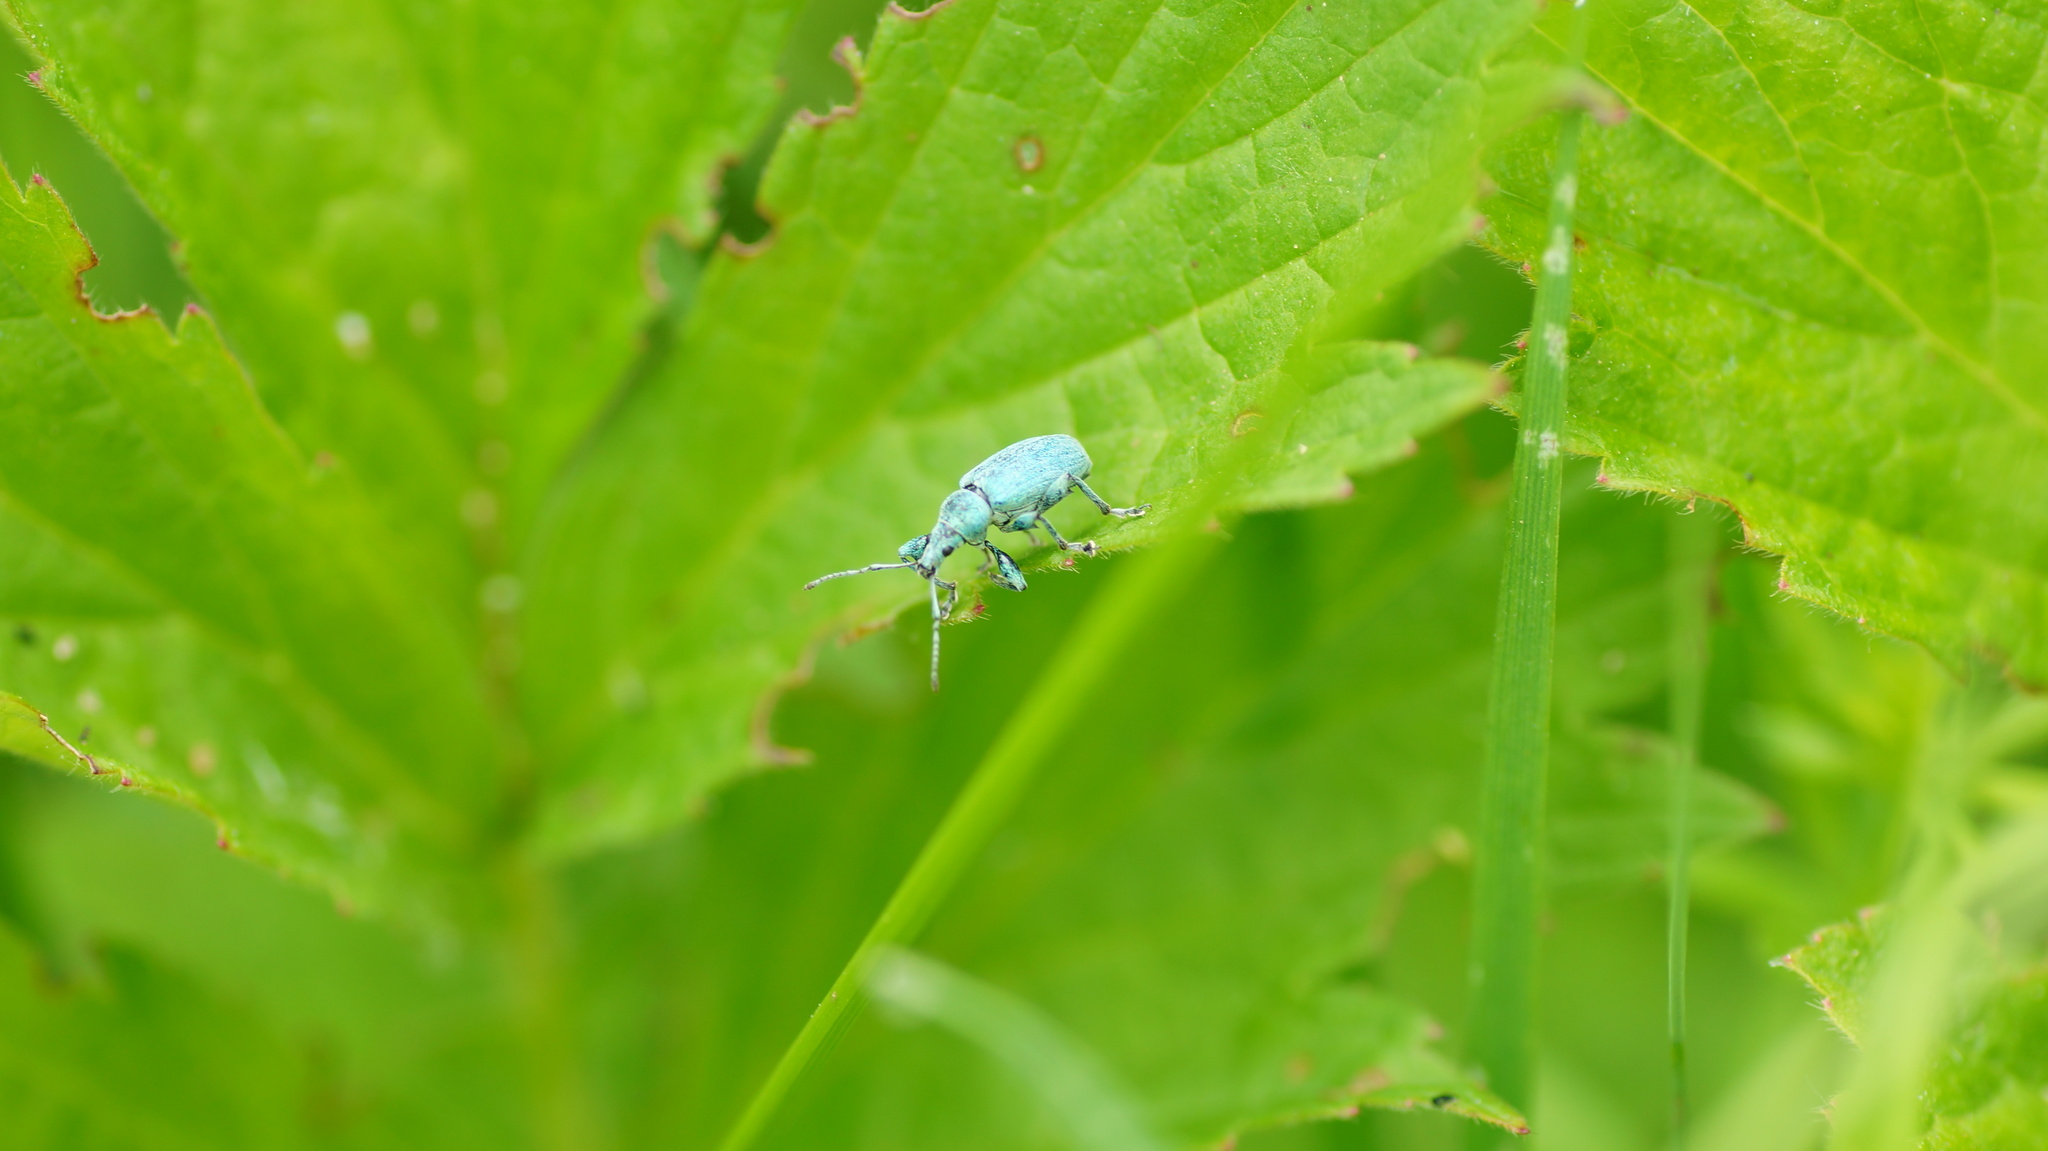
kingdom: Animalia
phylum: Arthropoda
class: Insecta
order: Coleoptera
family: Curculionidae
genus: Phyllobius
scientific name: Phyllobius pomaceus
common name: Green nettle weevil
